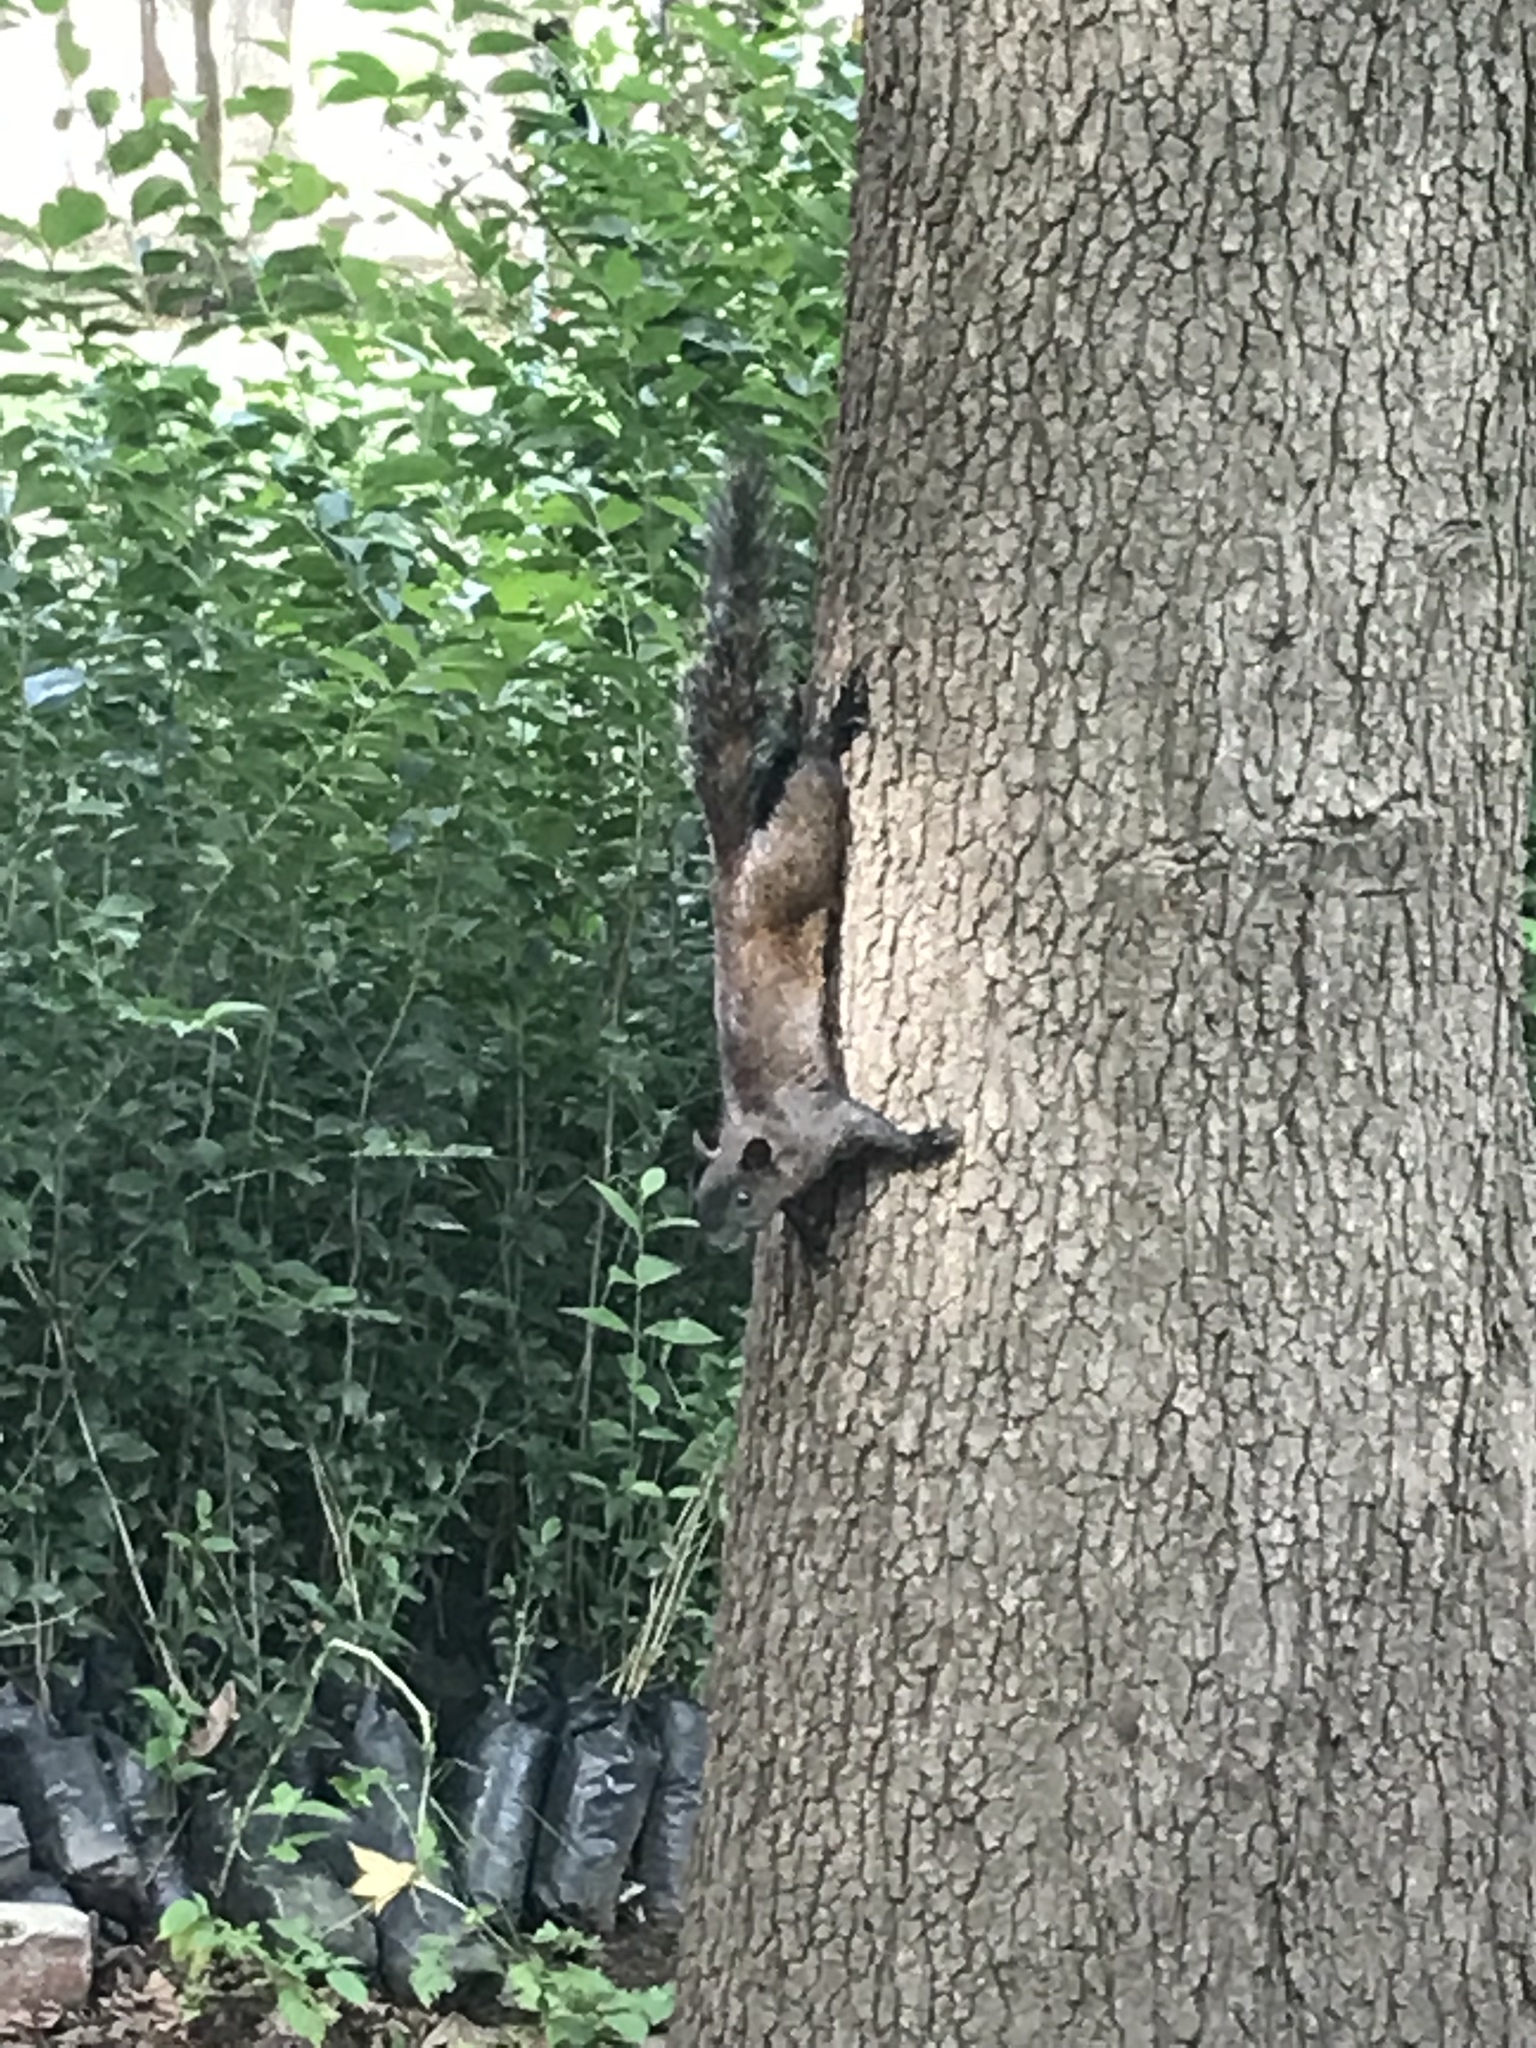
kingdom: Animalia
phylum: Chordata
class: Mammalia
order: Rodentia
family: Sciuridae
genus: Sciurus
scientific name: Sciurus aureogaster
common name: Red-bellied squirrel
